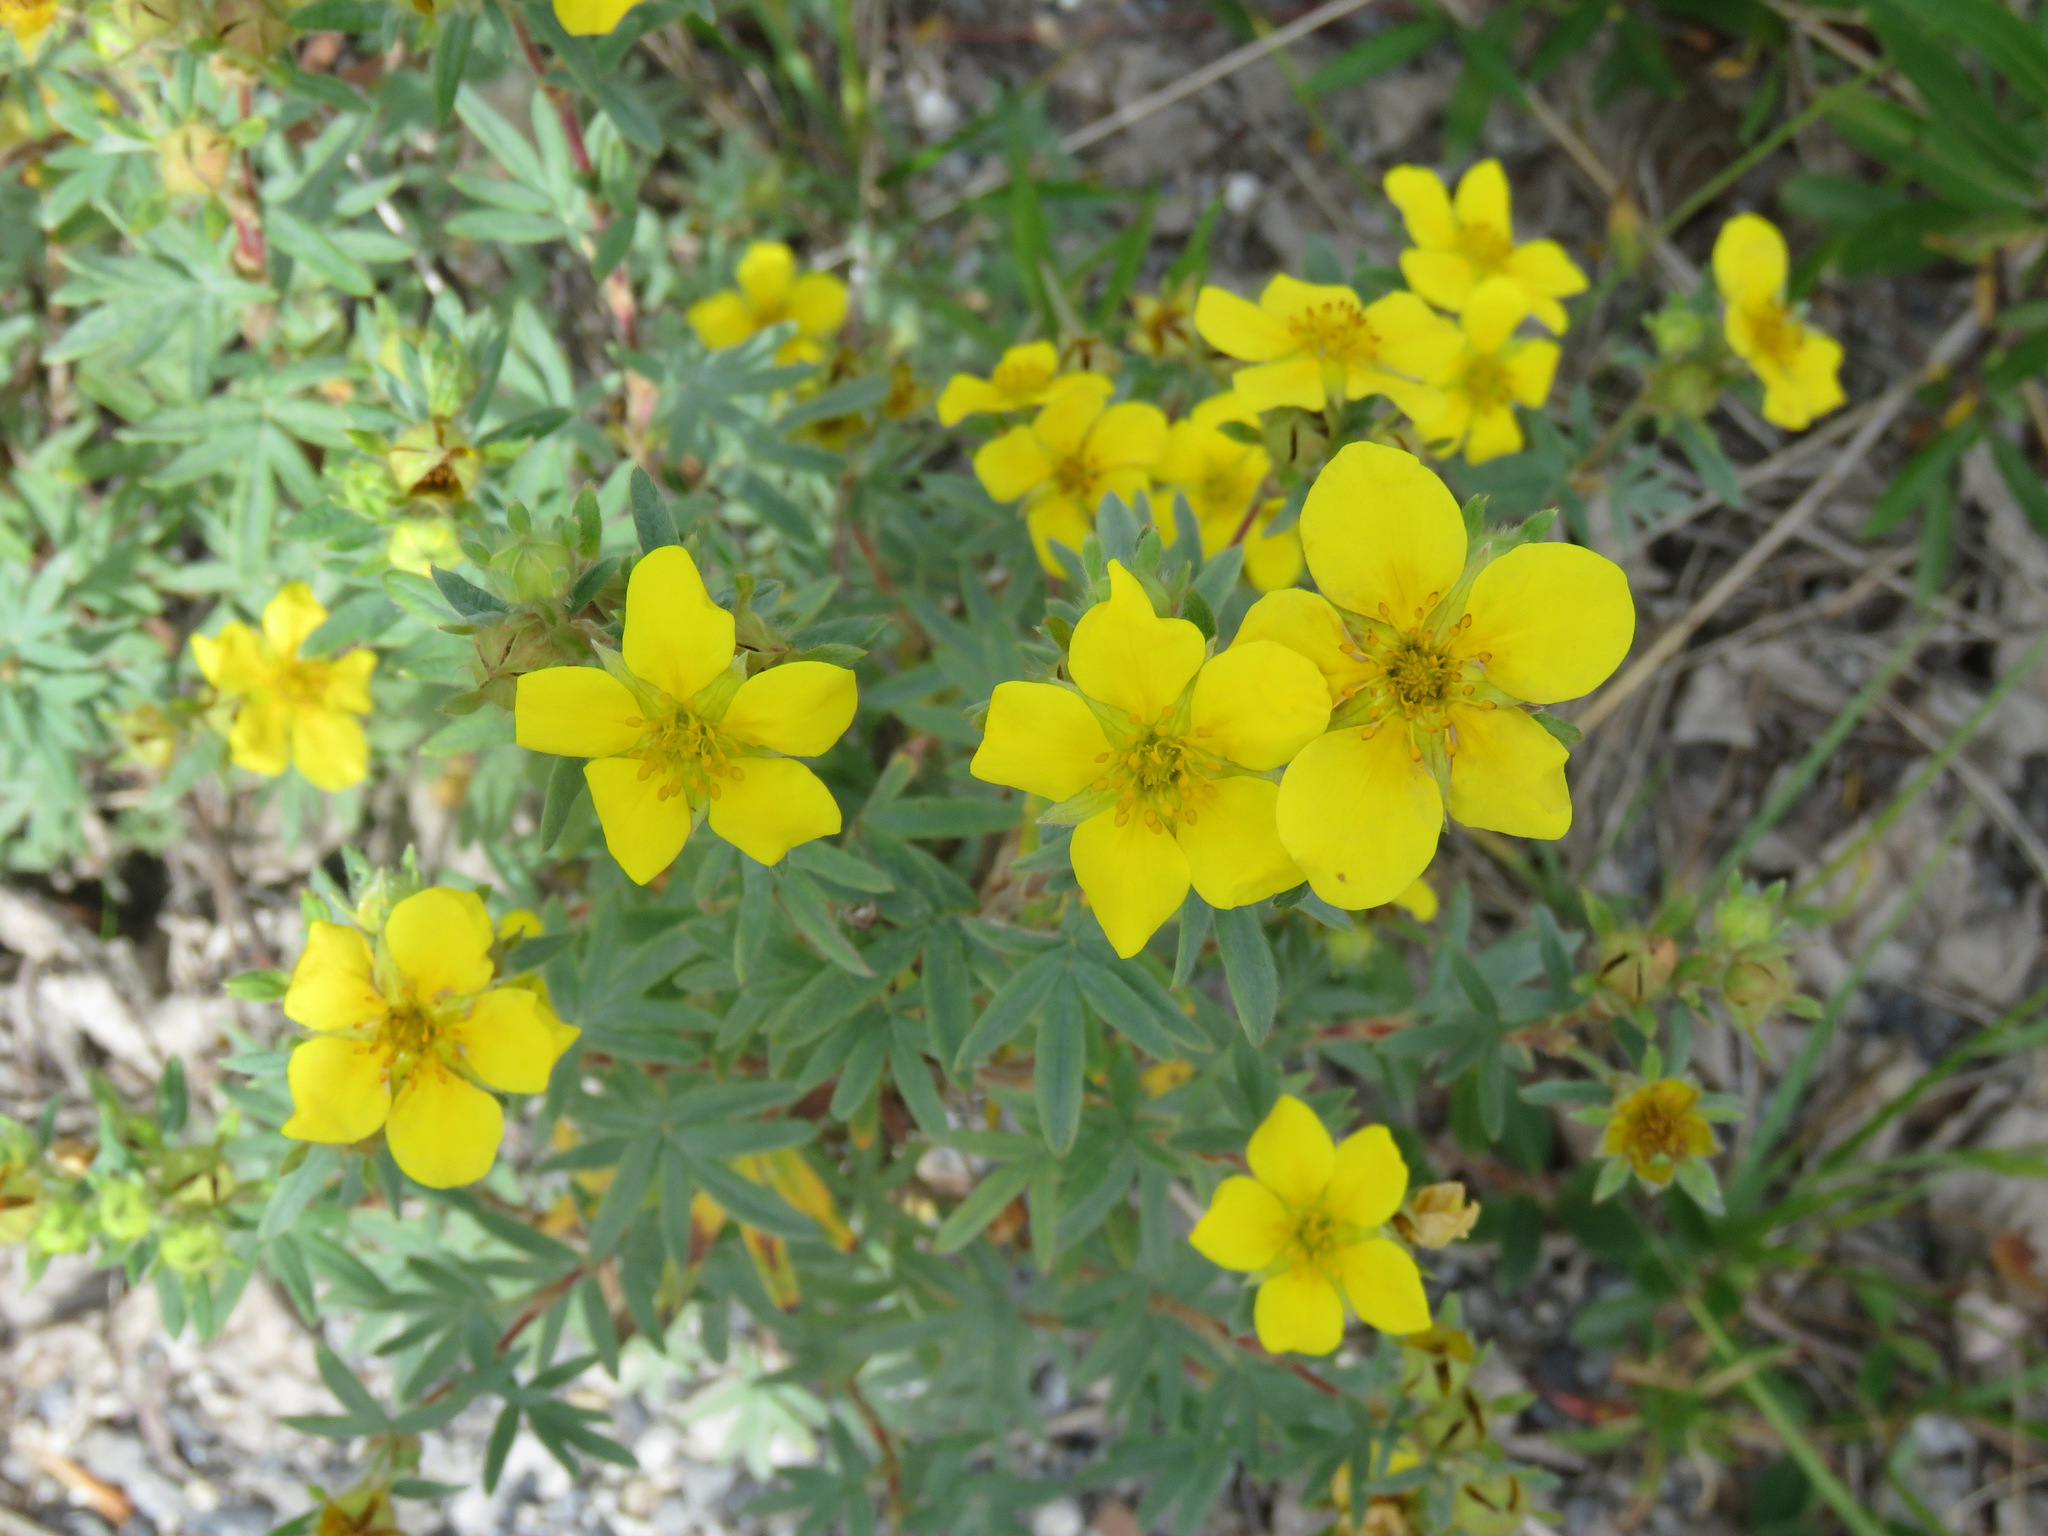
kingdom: Plantae
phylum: Tracheophyta
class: Magnoliopsida
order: Rosales
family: Rosaceae
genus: Dasiphora
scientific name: Dasiphora fruticosa
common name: Shrubby cinquefoil
